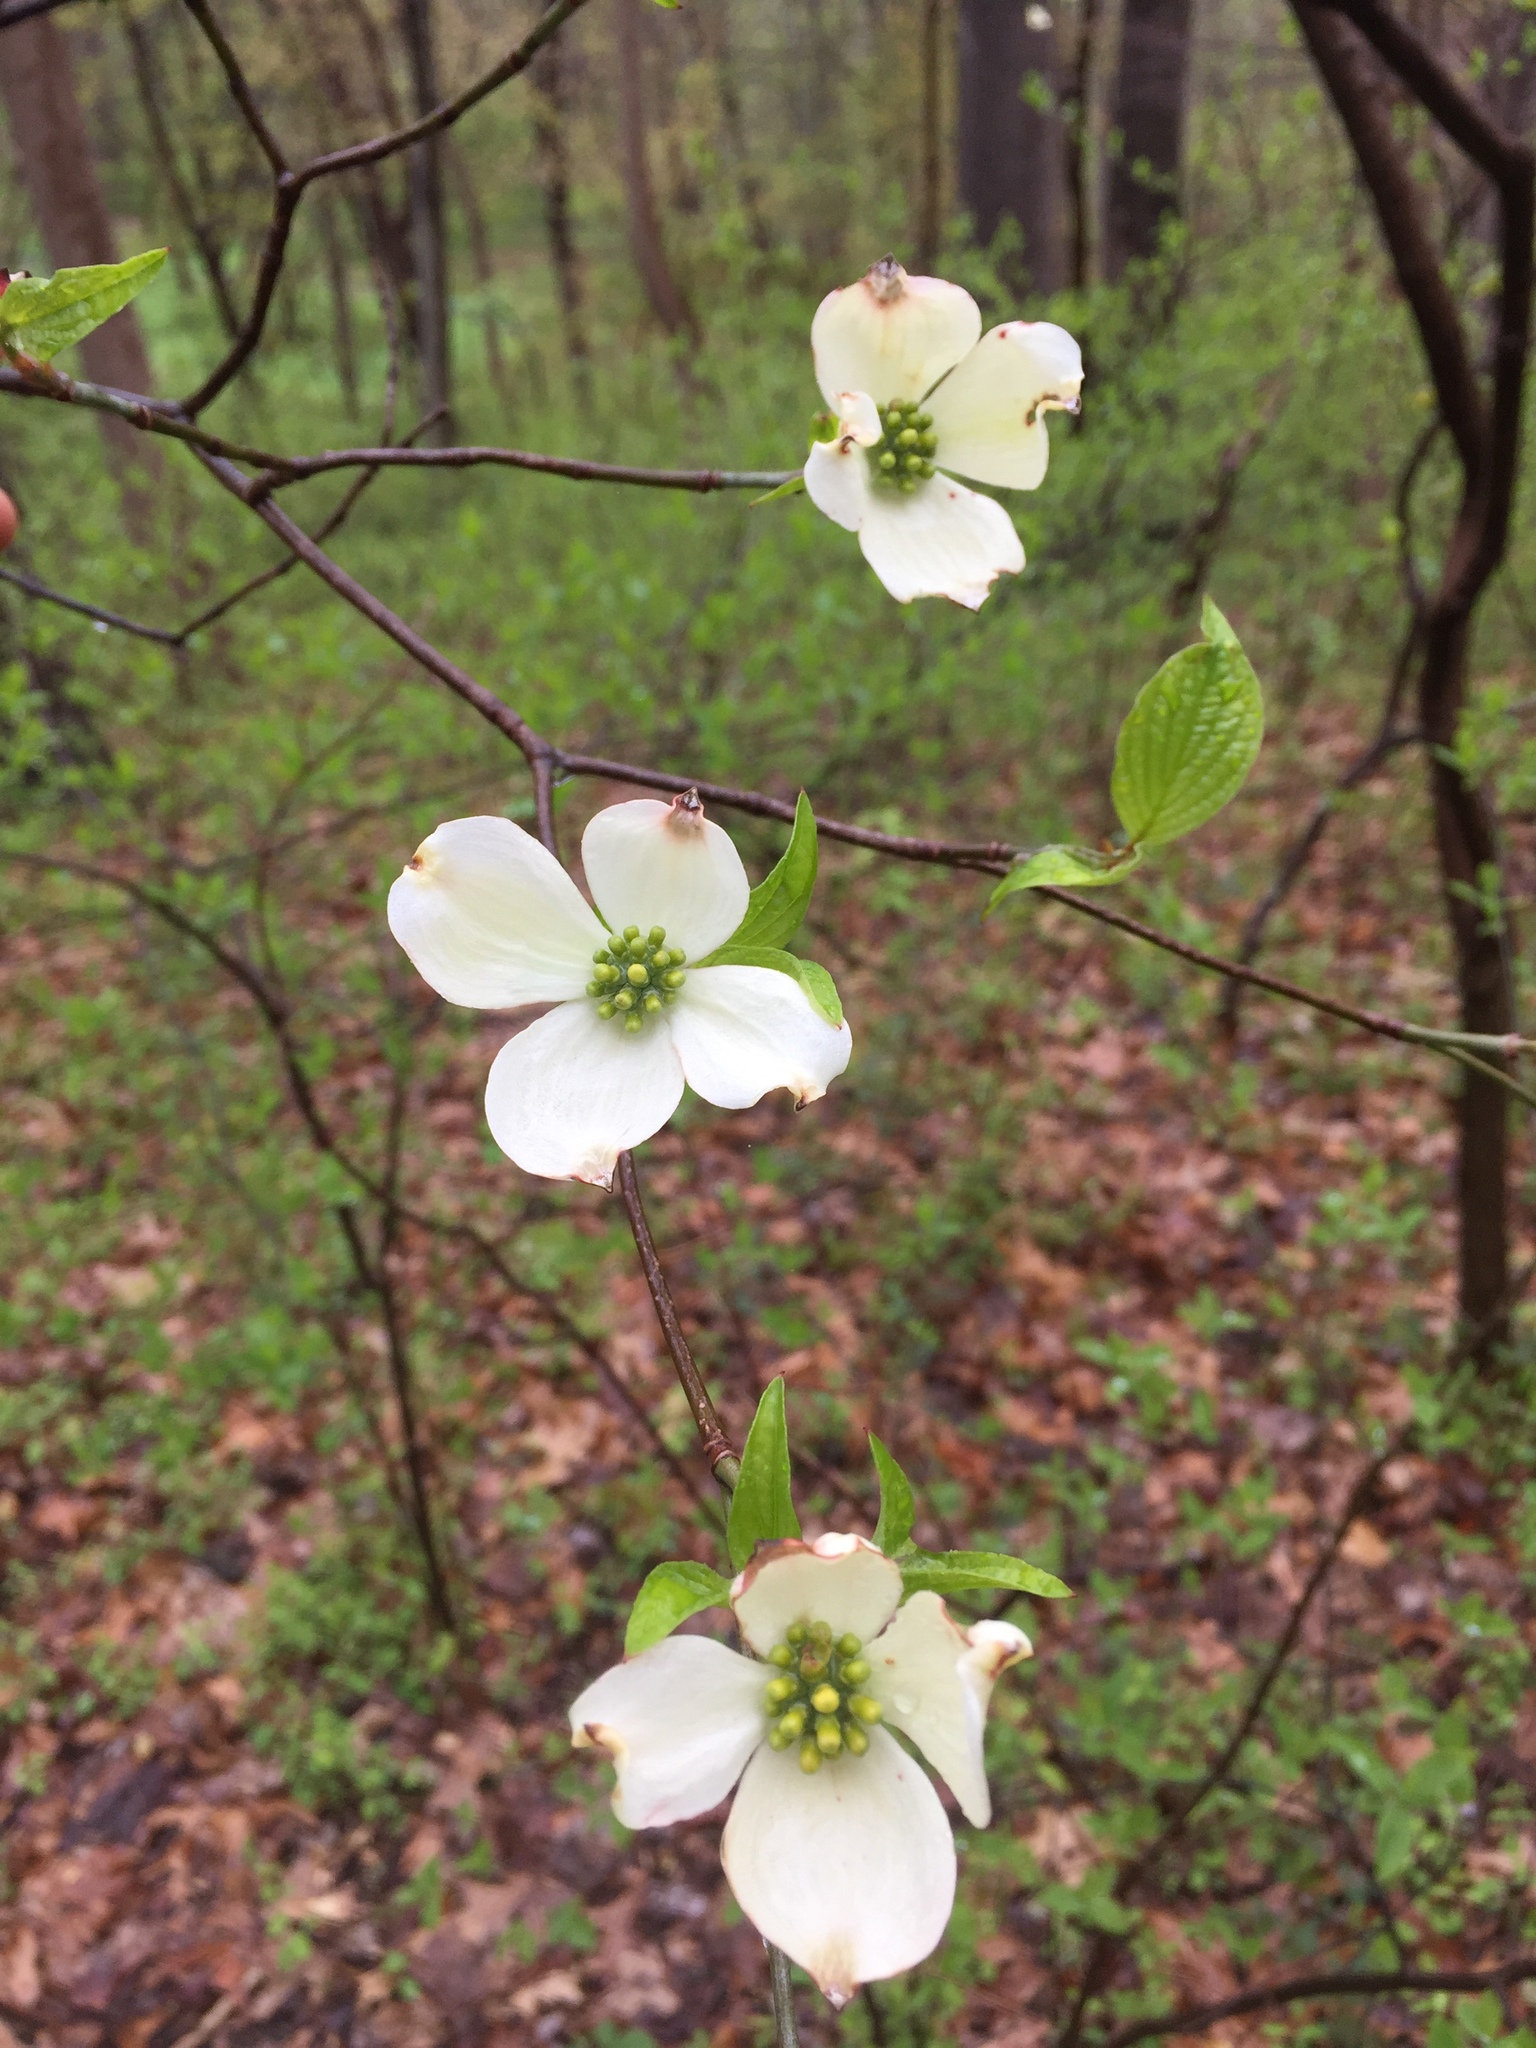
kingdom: Plantae
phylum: Tracheophyta
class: Magnoliopsida
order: Cornales
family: Cornaceae
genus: Cornus
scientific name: Cornus florida
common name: Flowering dogwood
